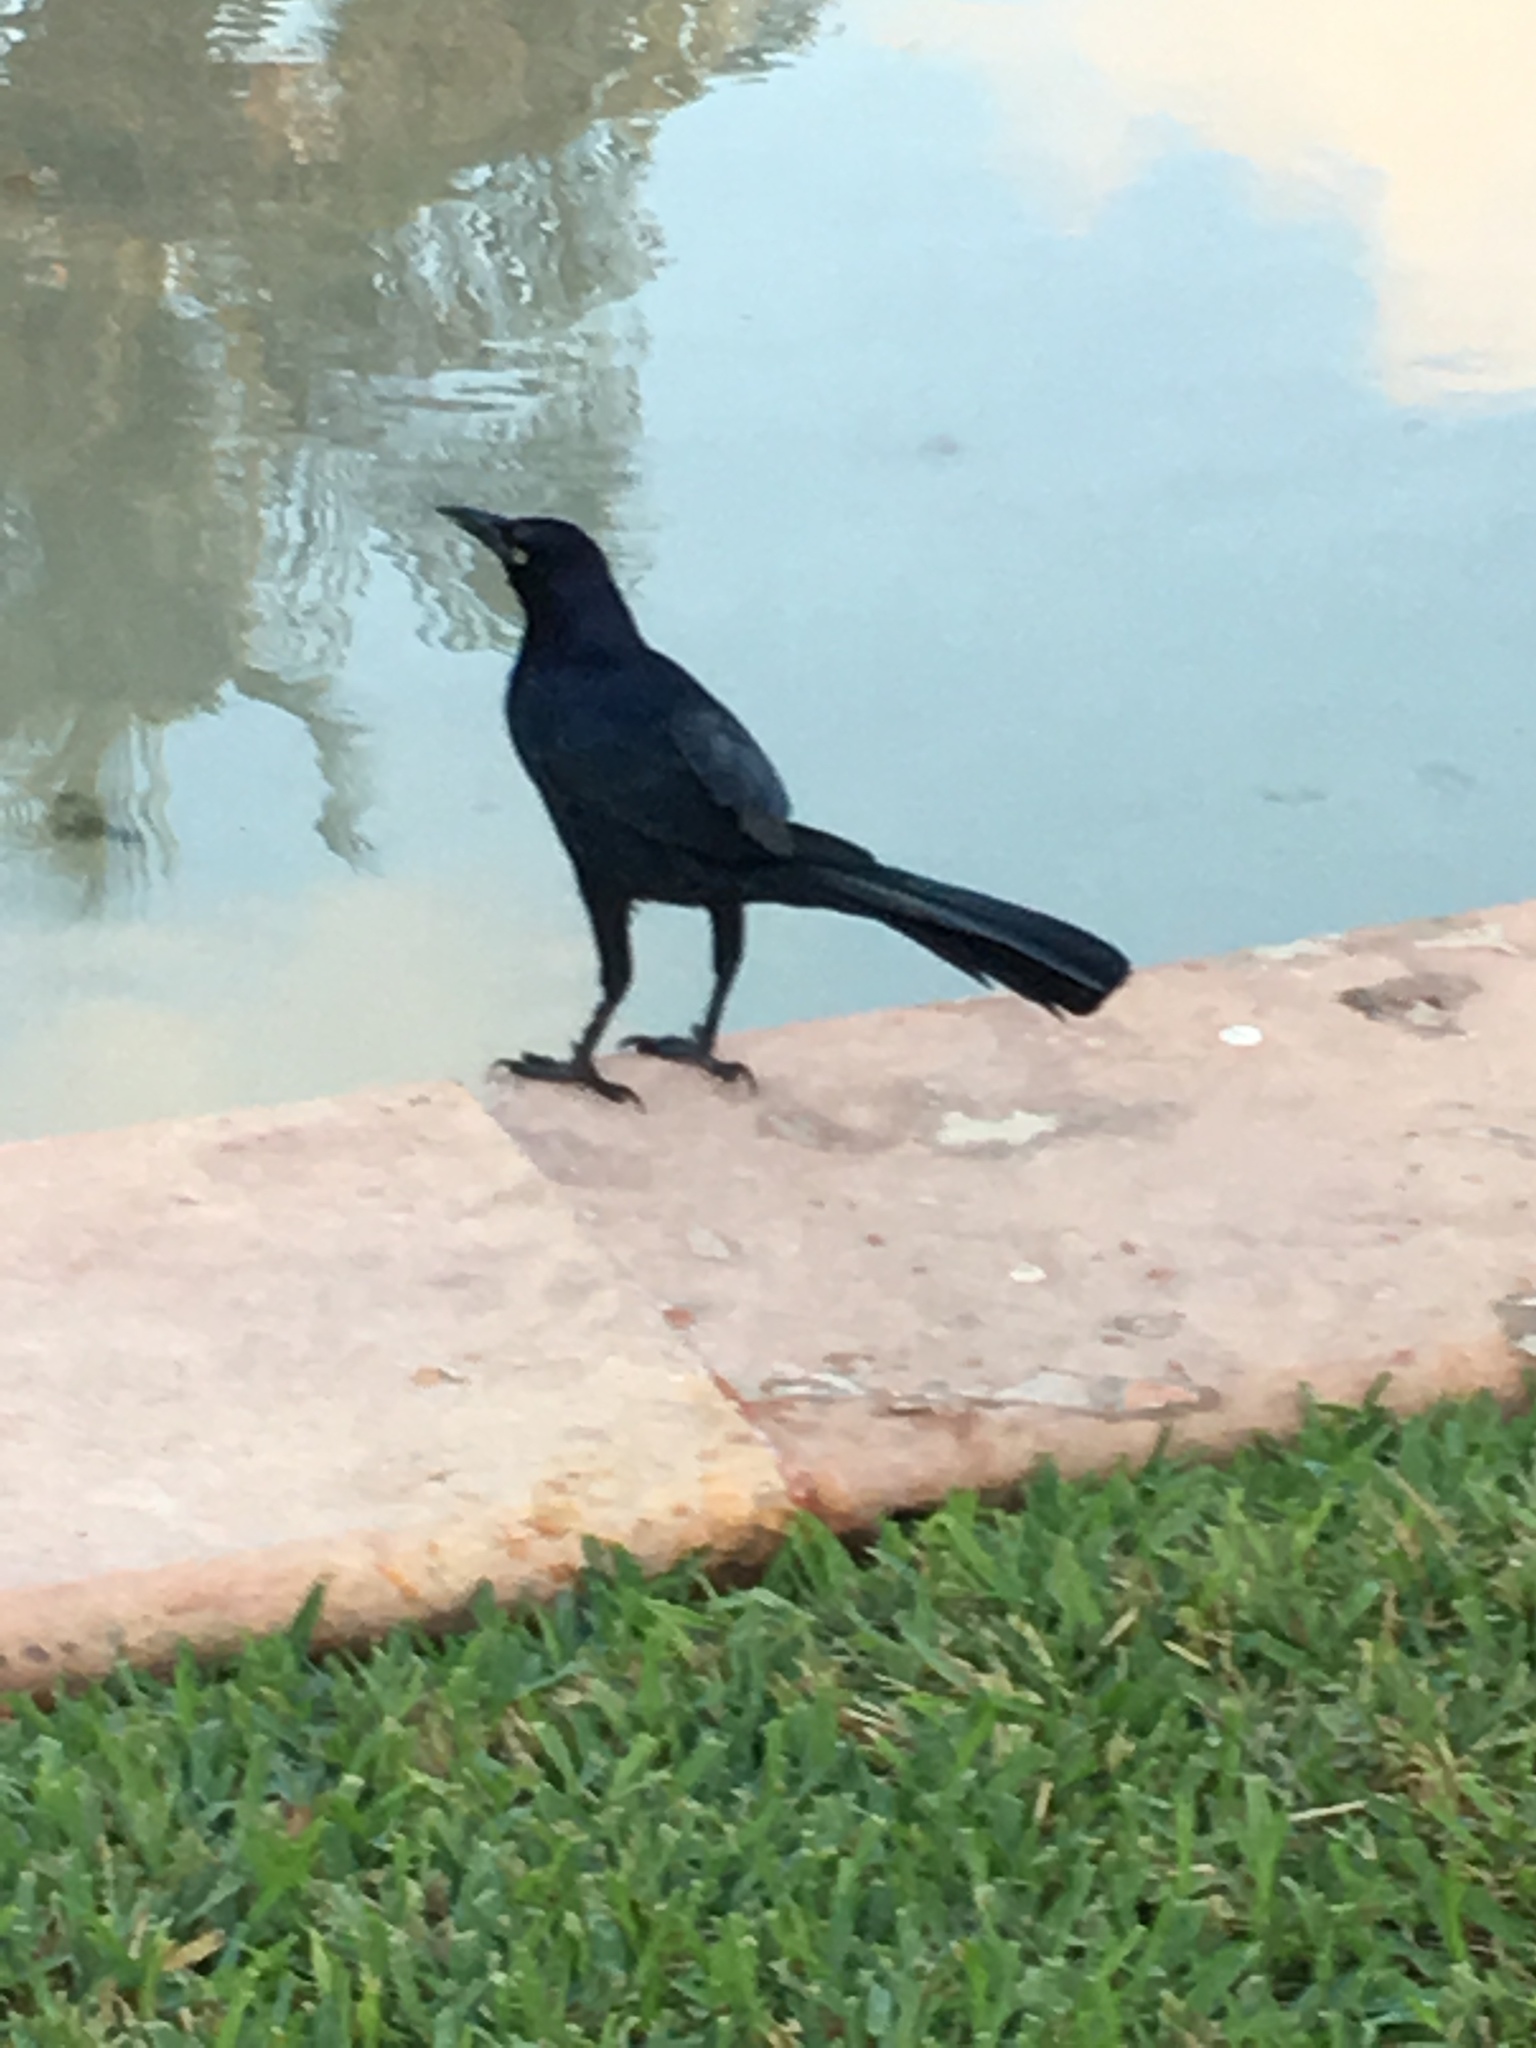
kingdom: Animalia
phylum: Chordata
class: Aves
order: Passeriformes
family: Icteridae
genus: Quiscalus
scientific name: Quiscalus mexicanus
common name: Great-tailed grackle
